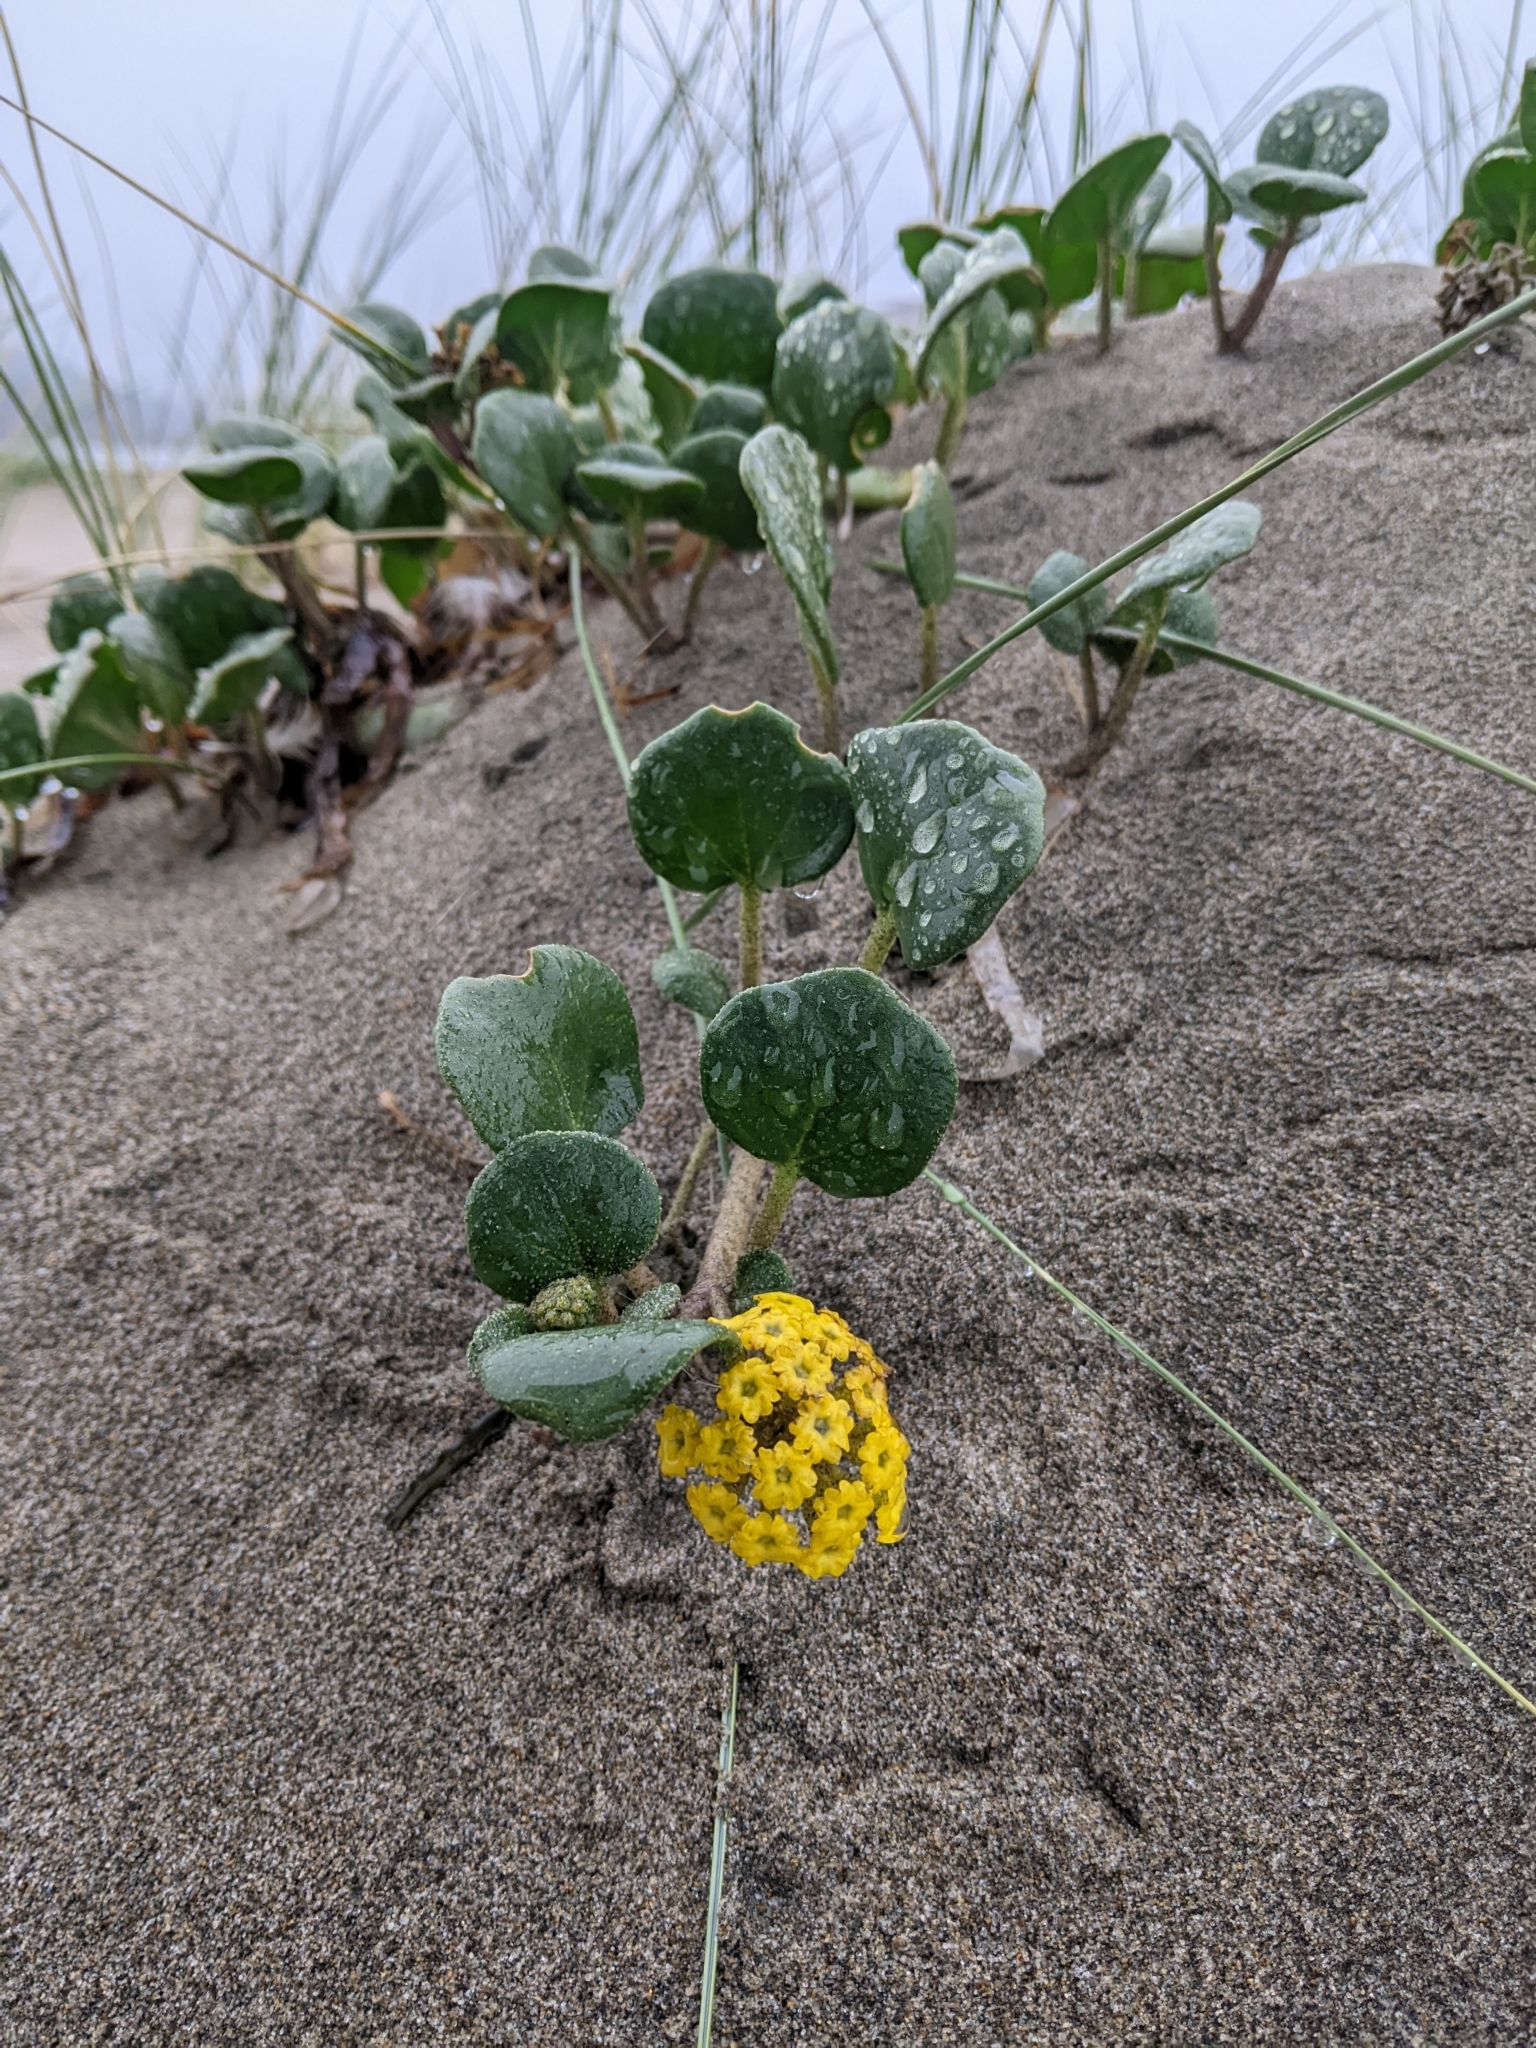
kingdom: Plantae
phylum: Tracheophyta
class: Magnoliopsida
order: Caryophyllales
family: Nyctaginaceae
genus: Abronia
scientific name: Abronia latifolia
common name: Yellow sand-verbena
